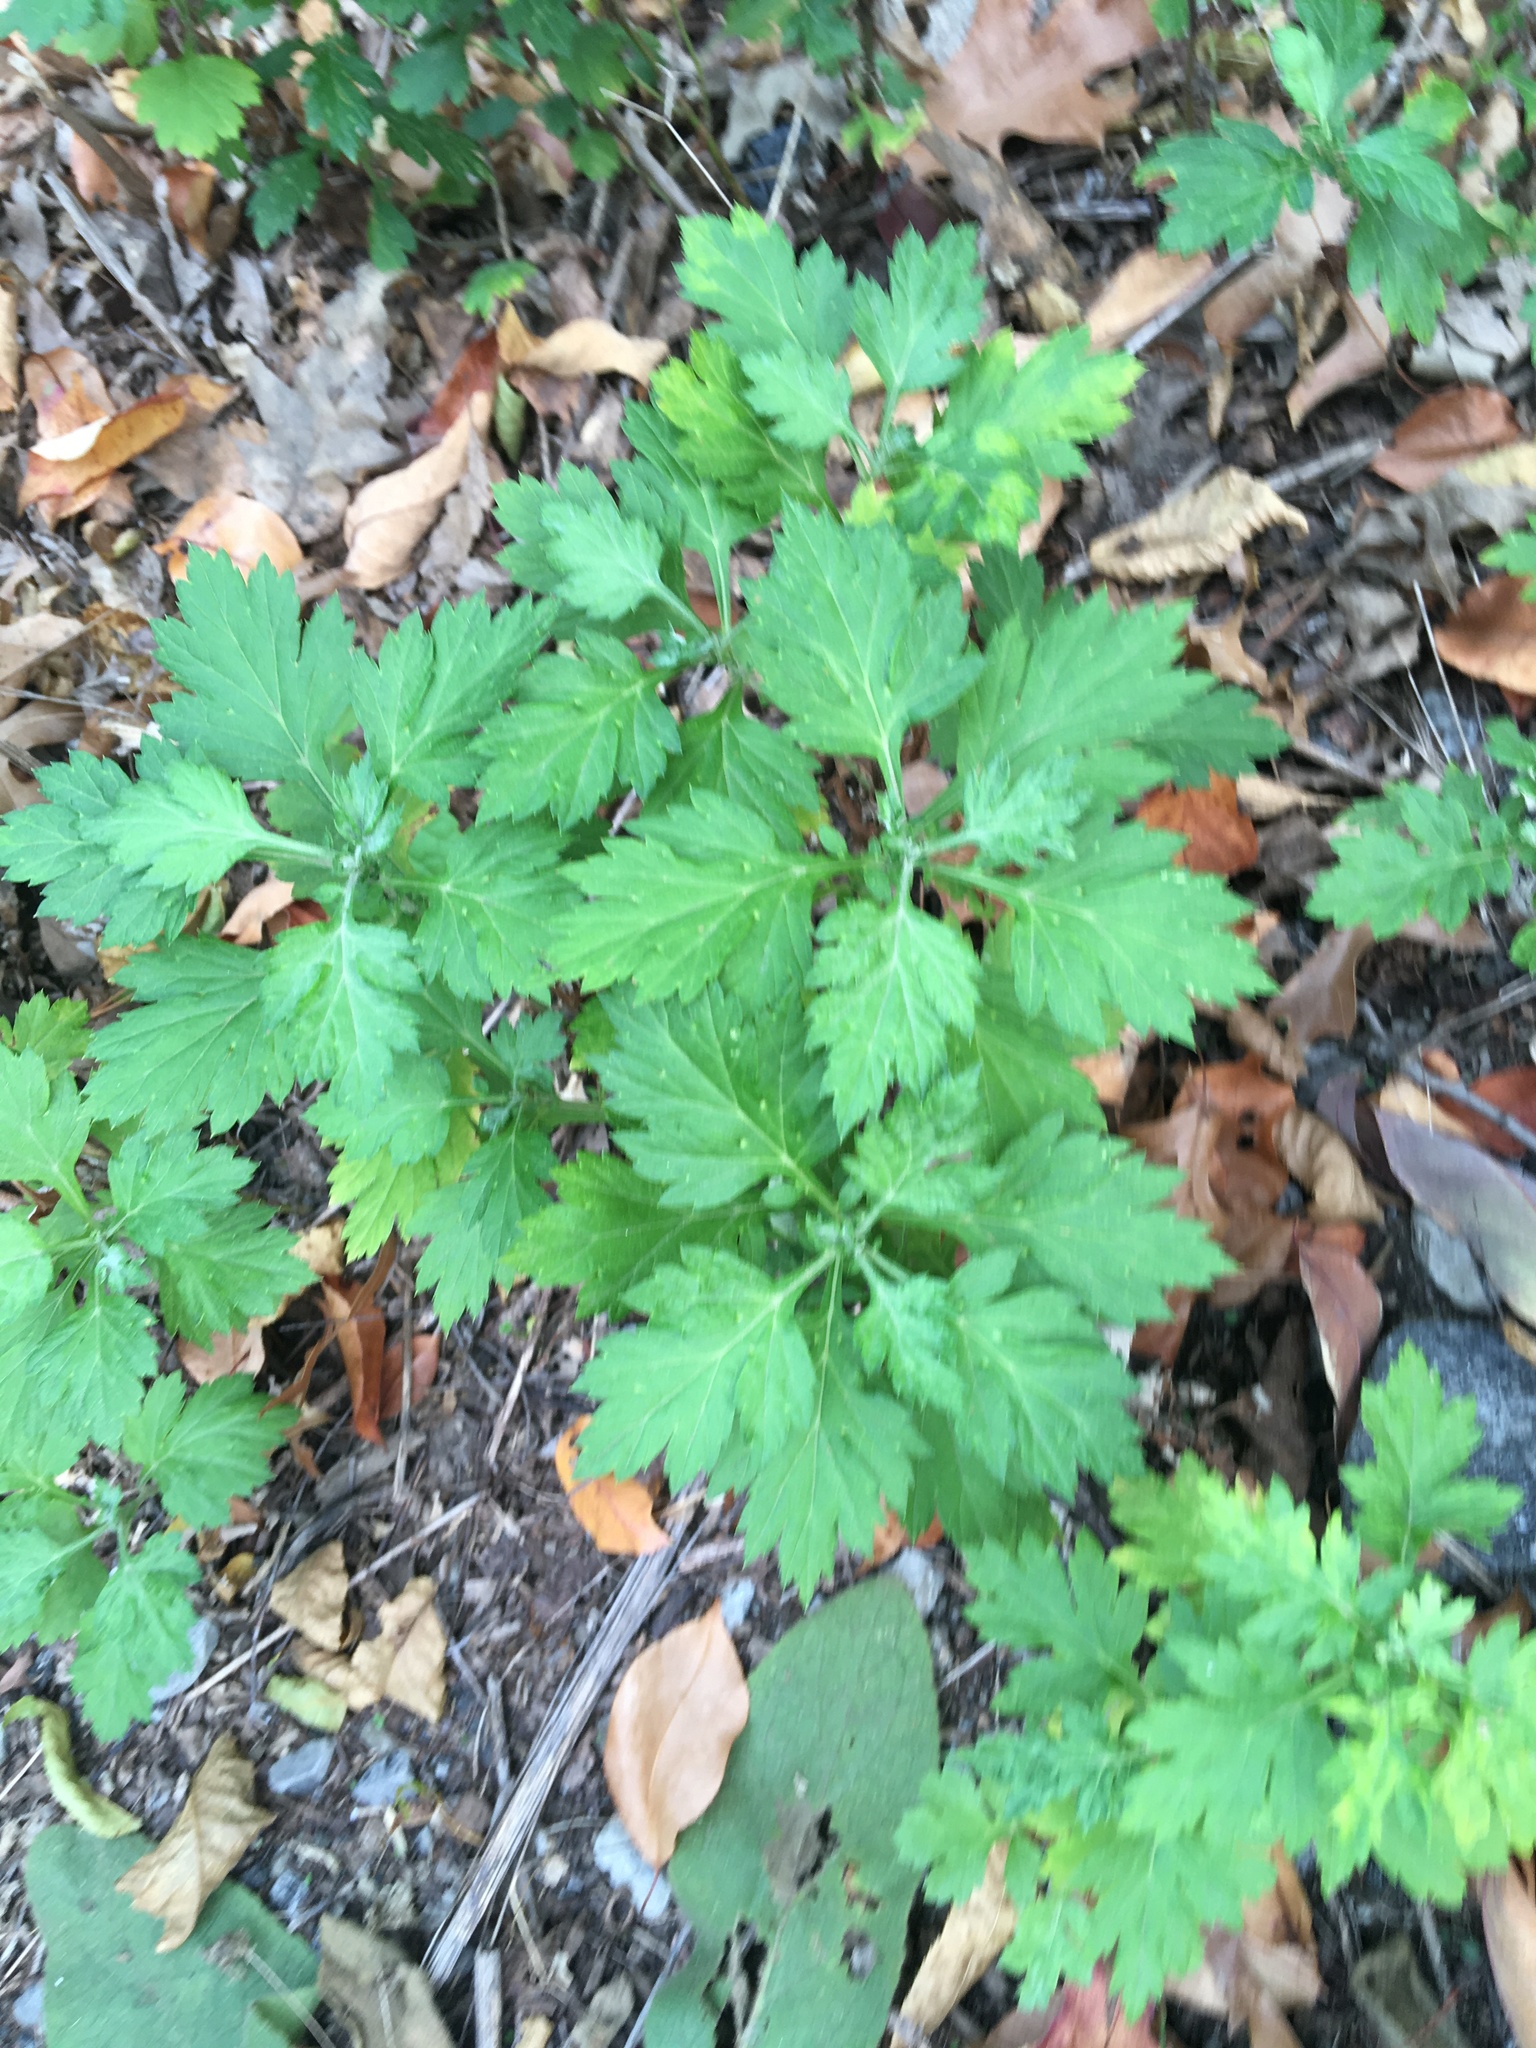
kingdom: Plantae
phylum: Tracheophyta
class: Magnoliopsida
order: Asterales
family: Asteraceae
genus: Artemisia
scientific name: Artemisia vulgaris
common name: Mugwort
